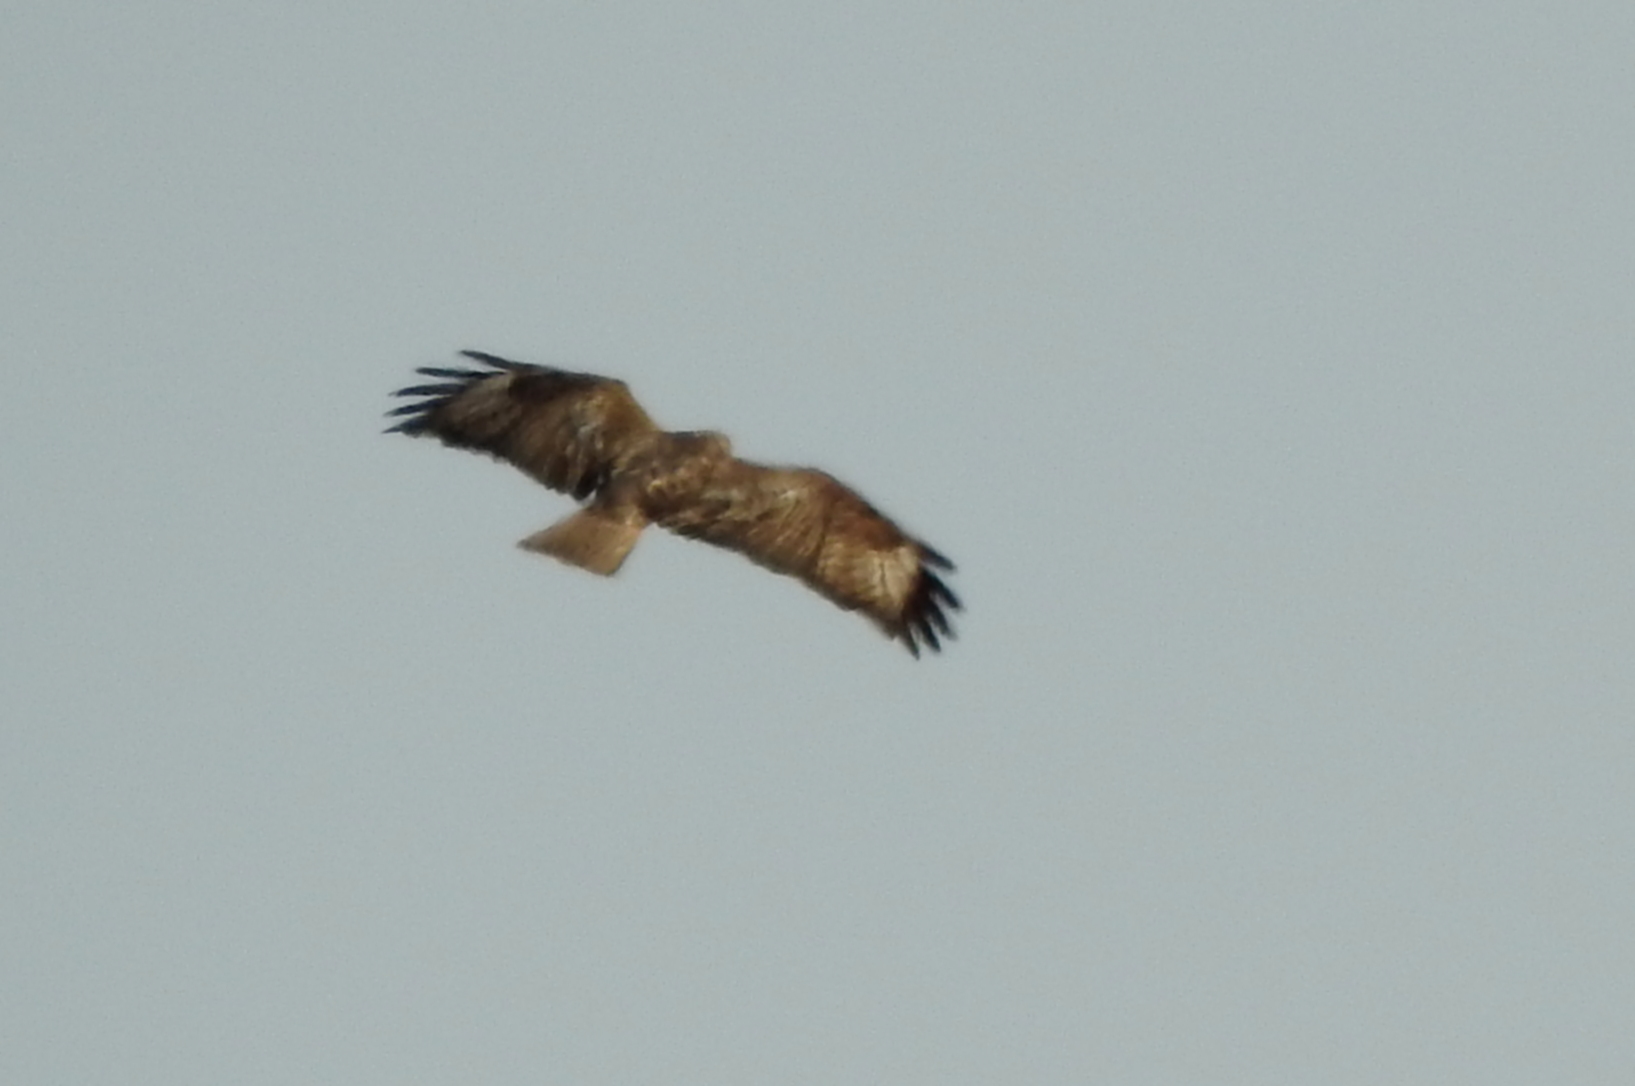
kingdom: Animalia
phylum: Chordata
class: Aves
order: Accipitriformes
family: Accipitridae
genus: Buteo
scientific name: Buteo japonicus
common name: Eastern buzzard
